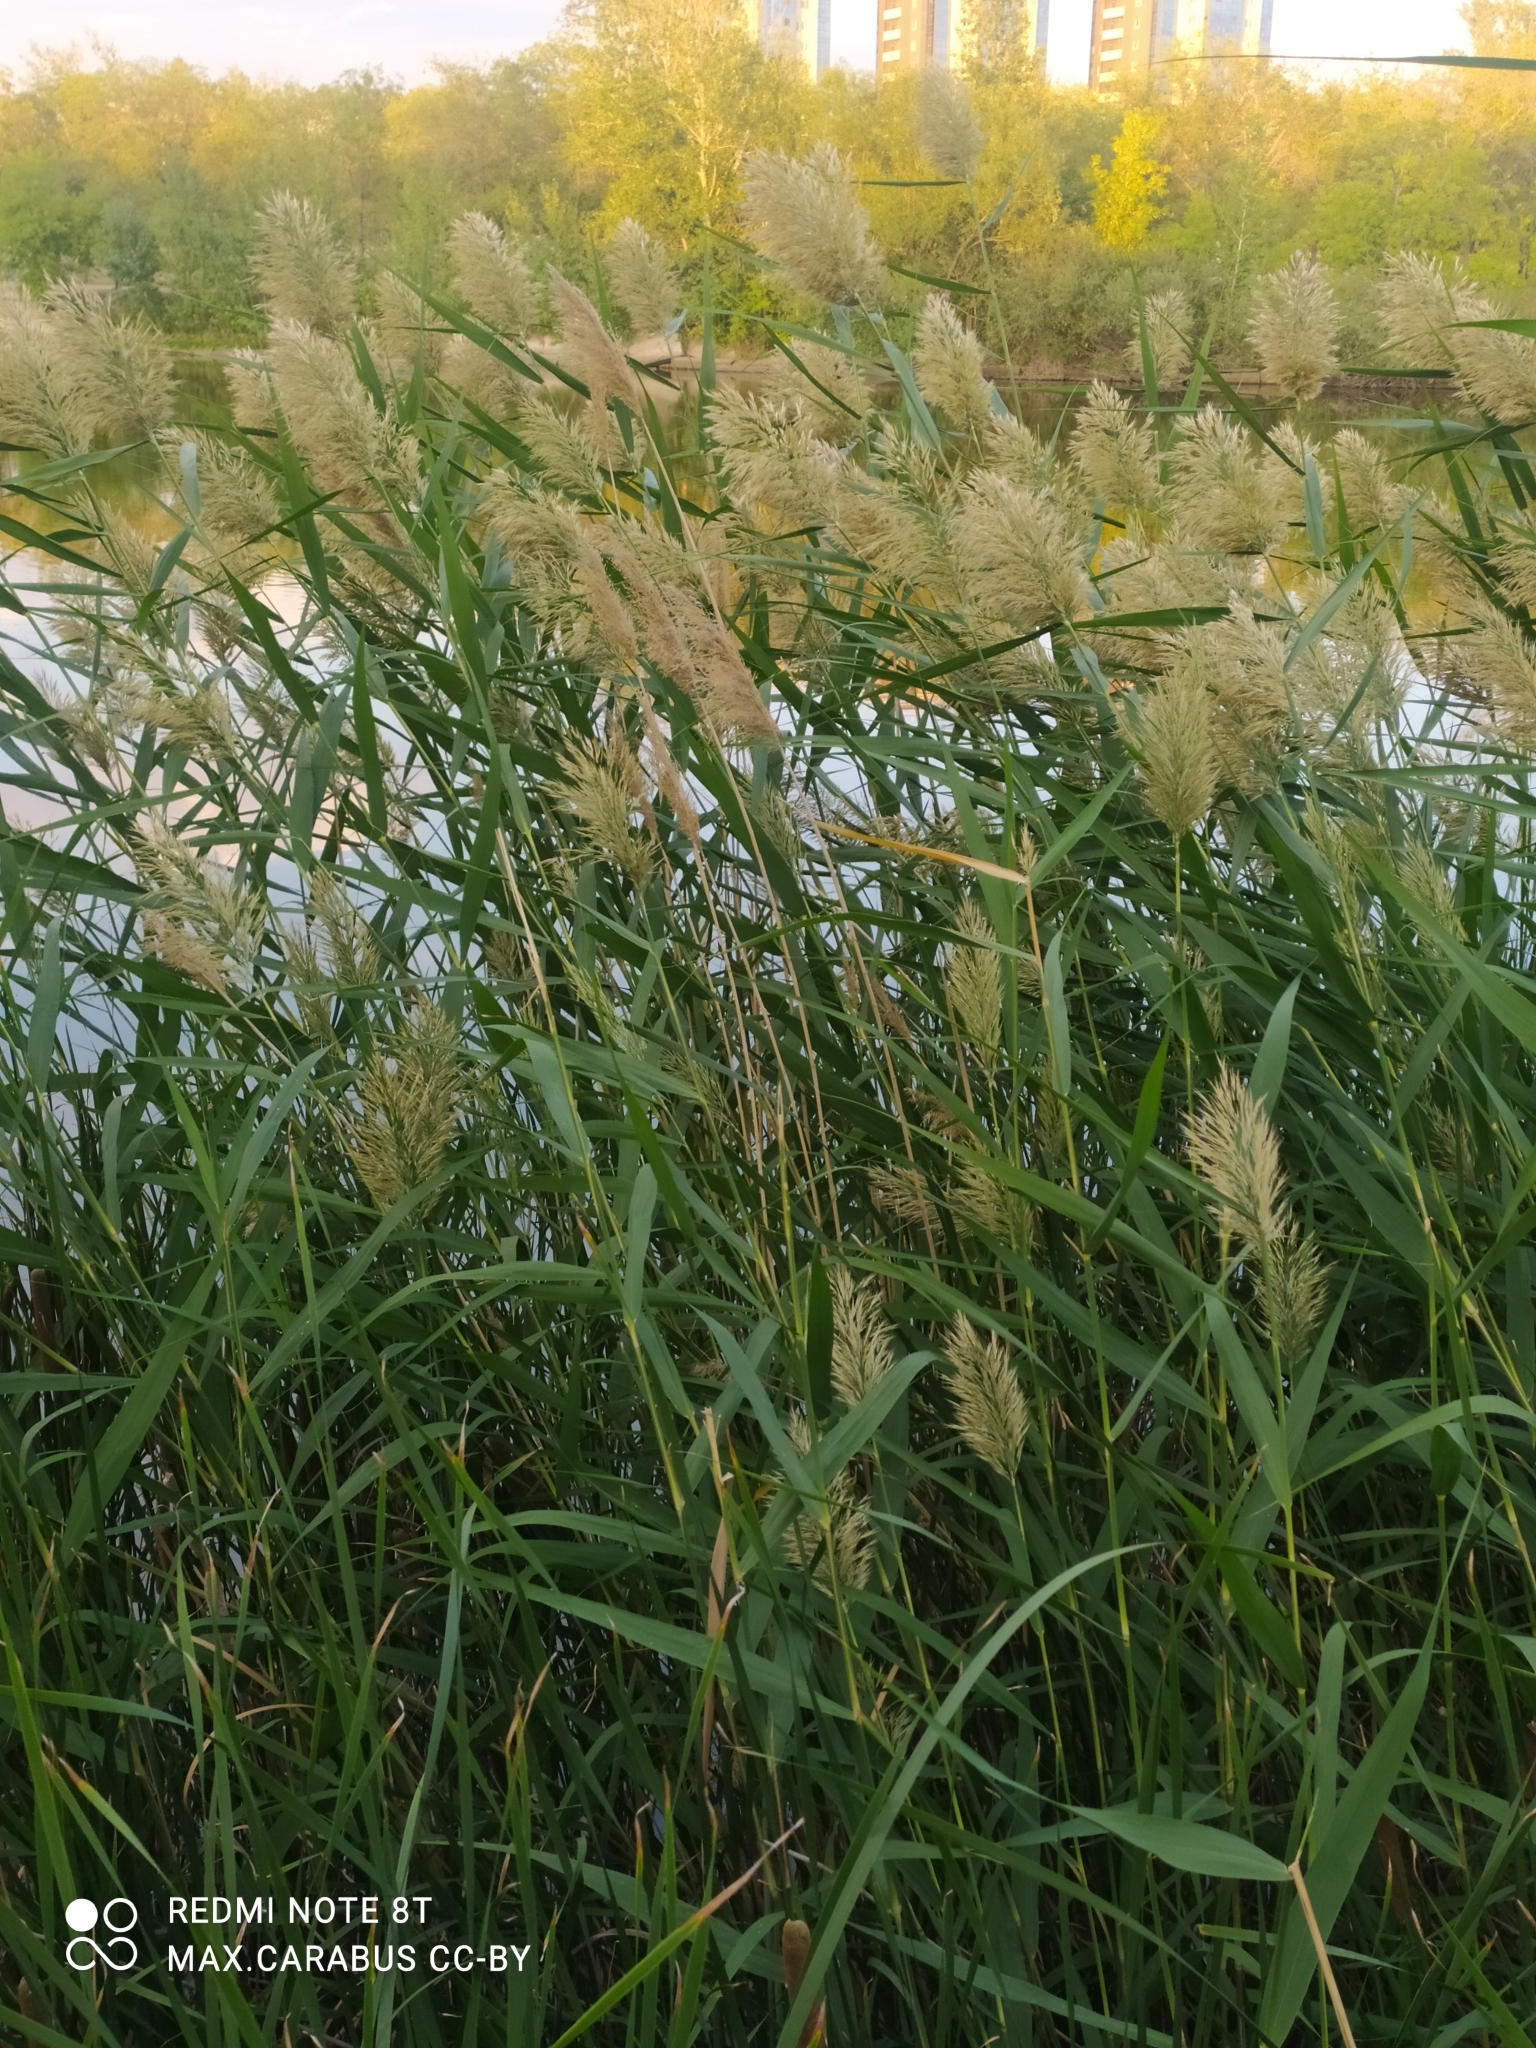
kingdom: Plantae
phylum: Tracheophyta
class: Liliopsida
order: Poales
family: Poaceae
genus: Phragmites
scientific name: Phragmites australis
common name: Common reed
